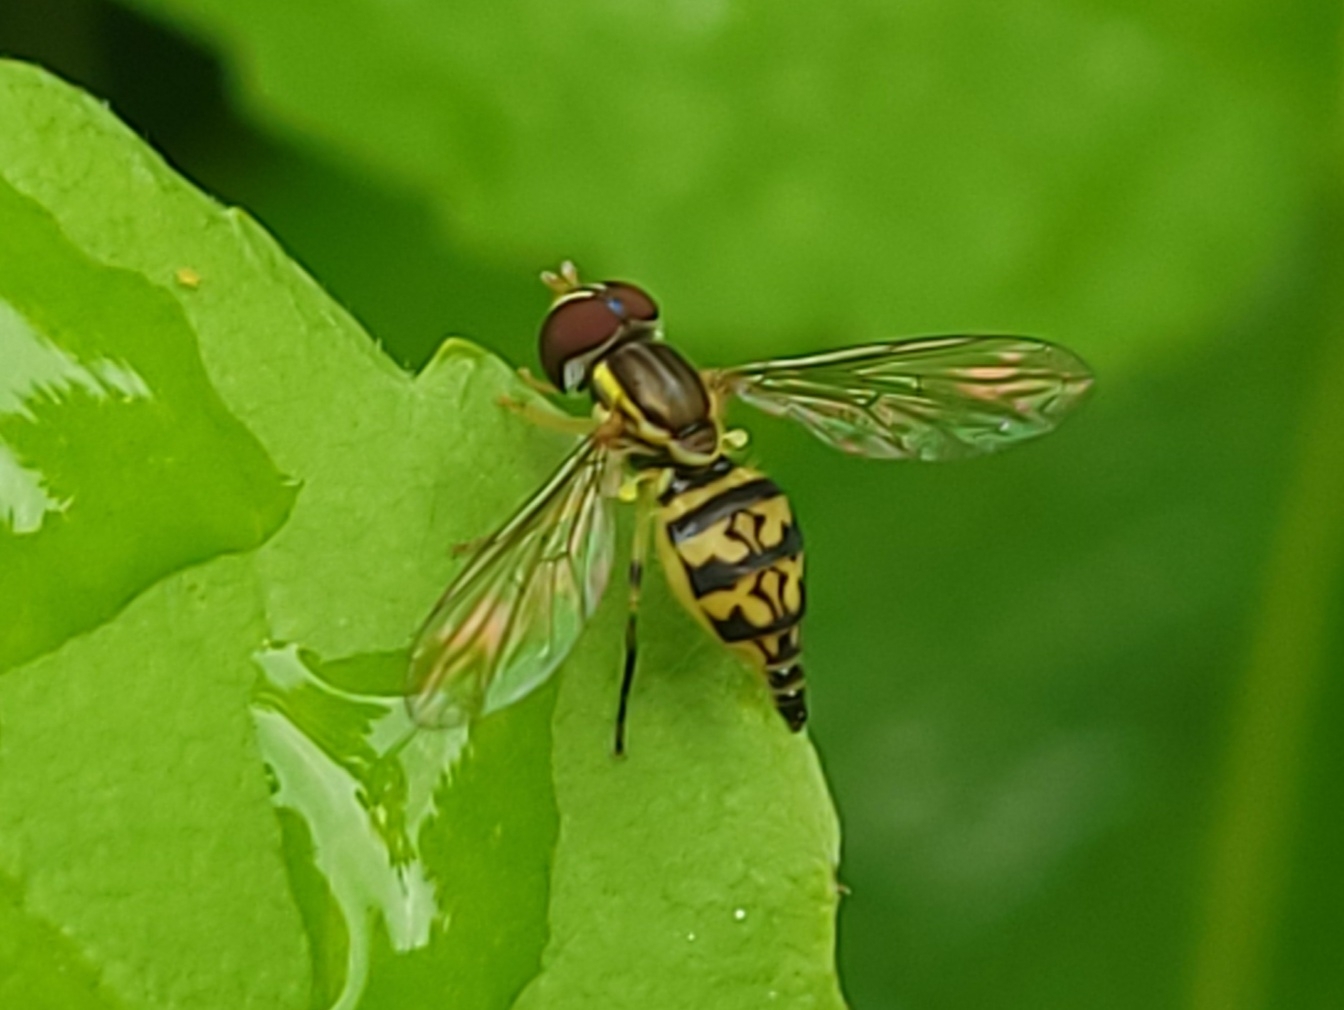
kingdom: Animalia
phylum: Arthropoda
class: Insecta
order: Diptera
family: Syrphidae
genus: Toxomerus
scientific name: Toxomerus geminatus
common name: Eastern calligrapher
